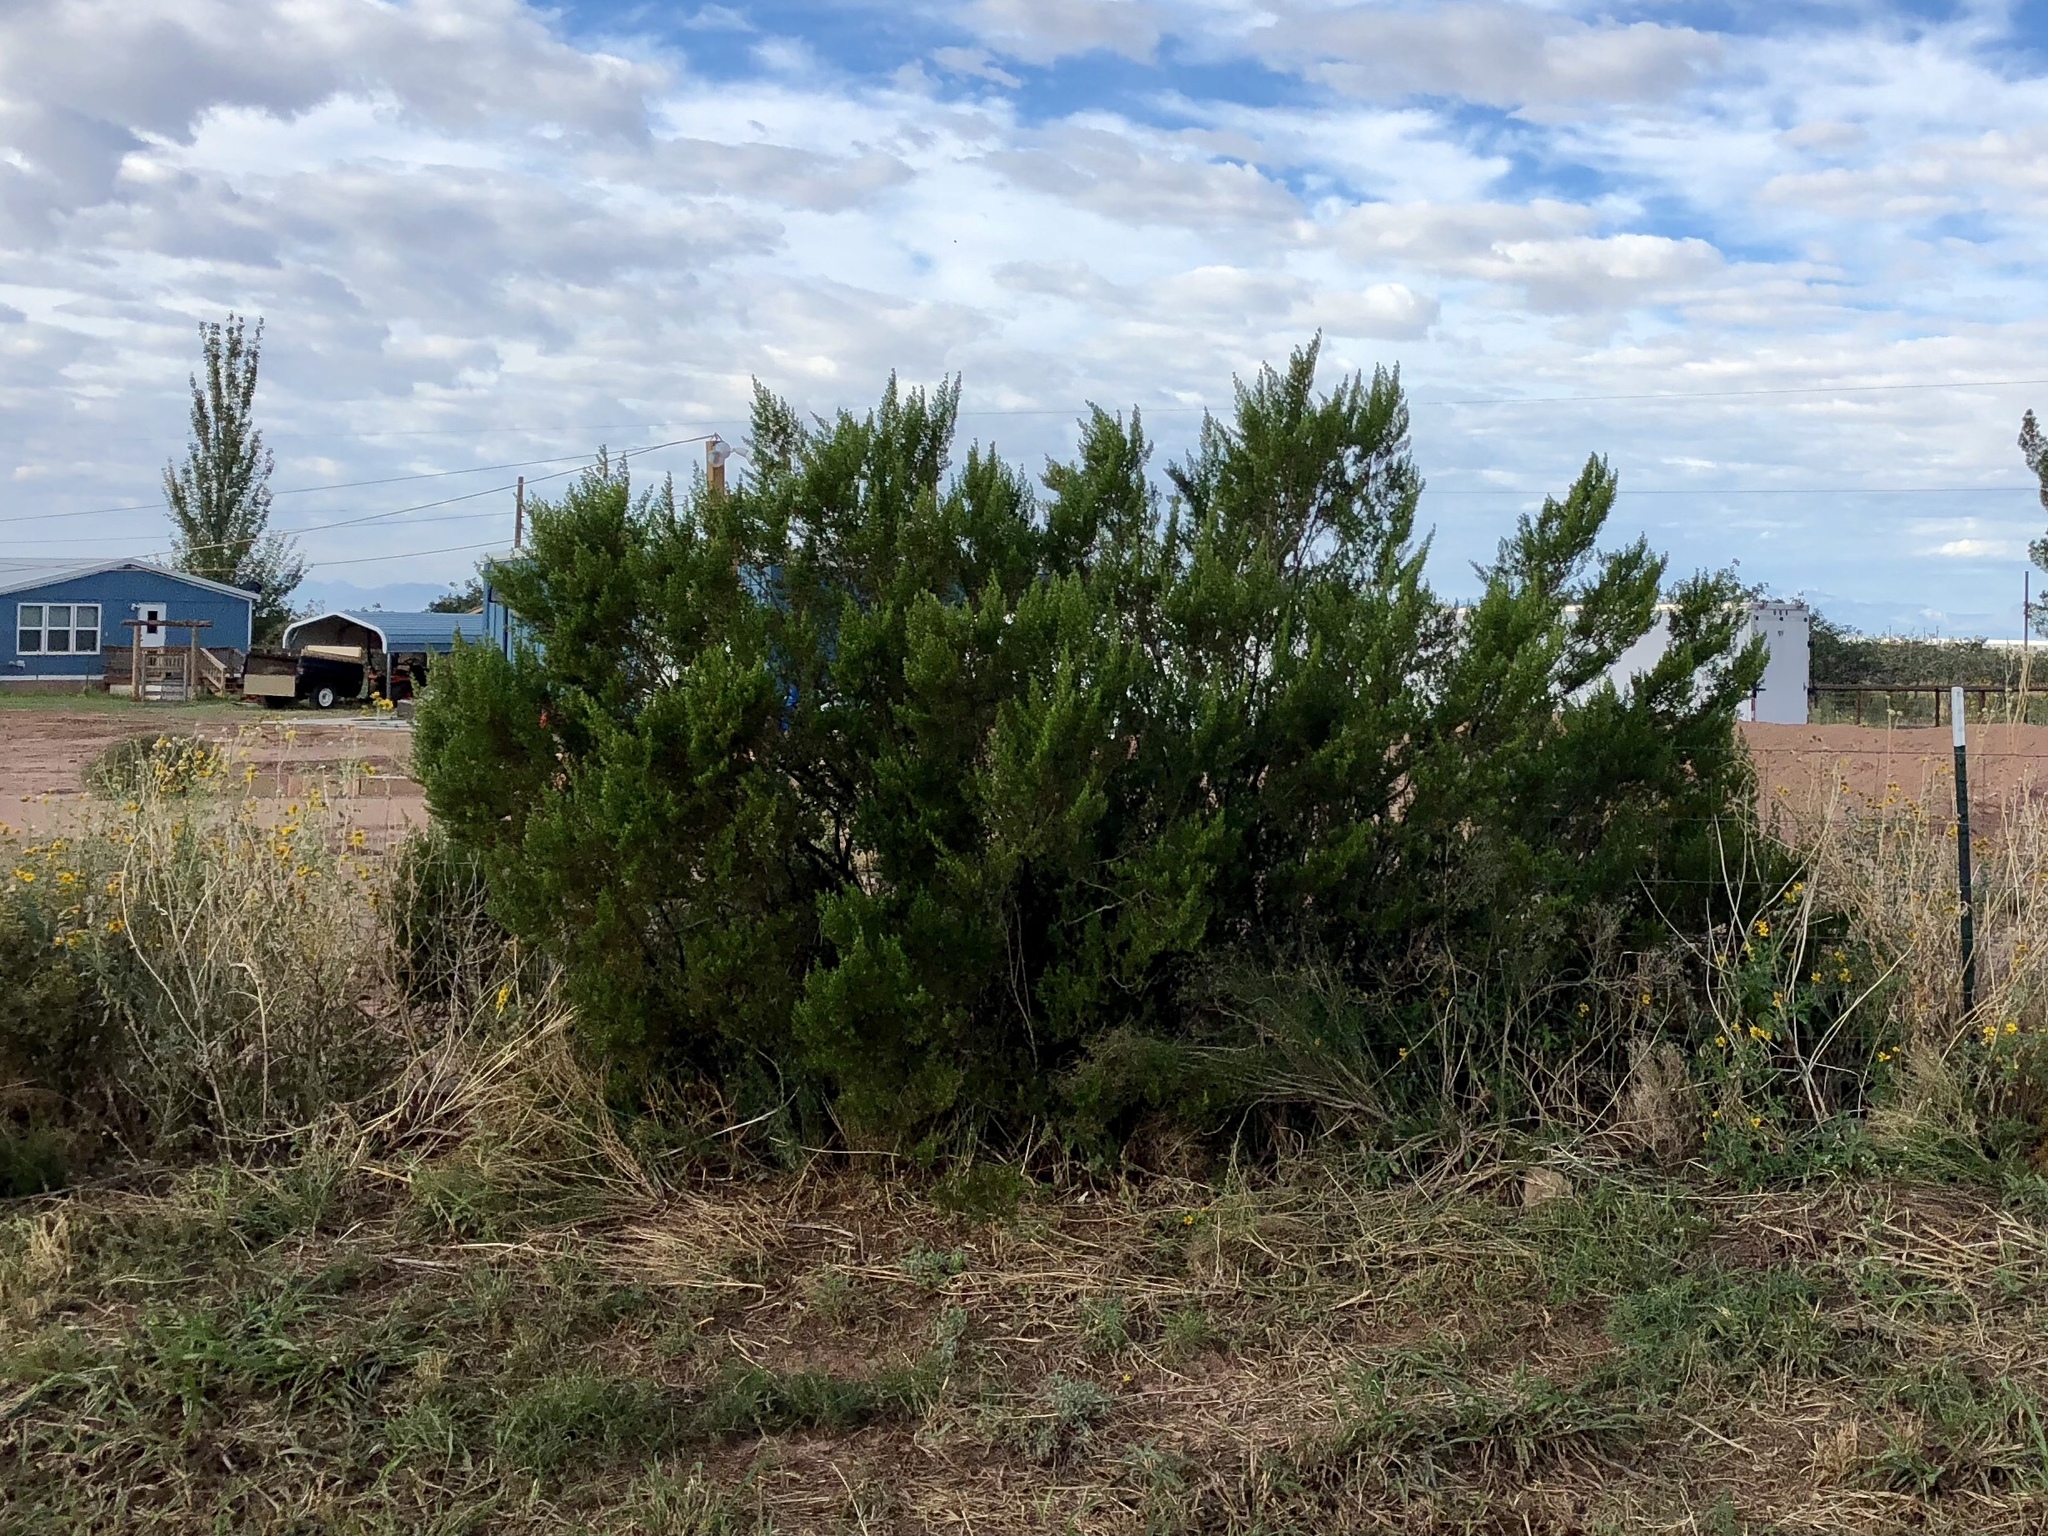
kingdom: Plantae
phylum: Tracheophyta
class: Magnoliopsida
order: Zygophyllales
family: Zygophyllaceae
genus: Larrea
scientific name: Larrea tridentata
